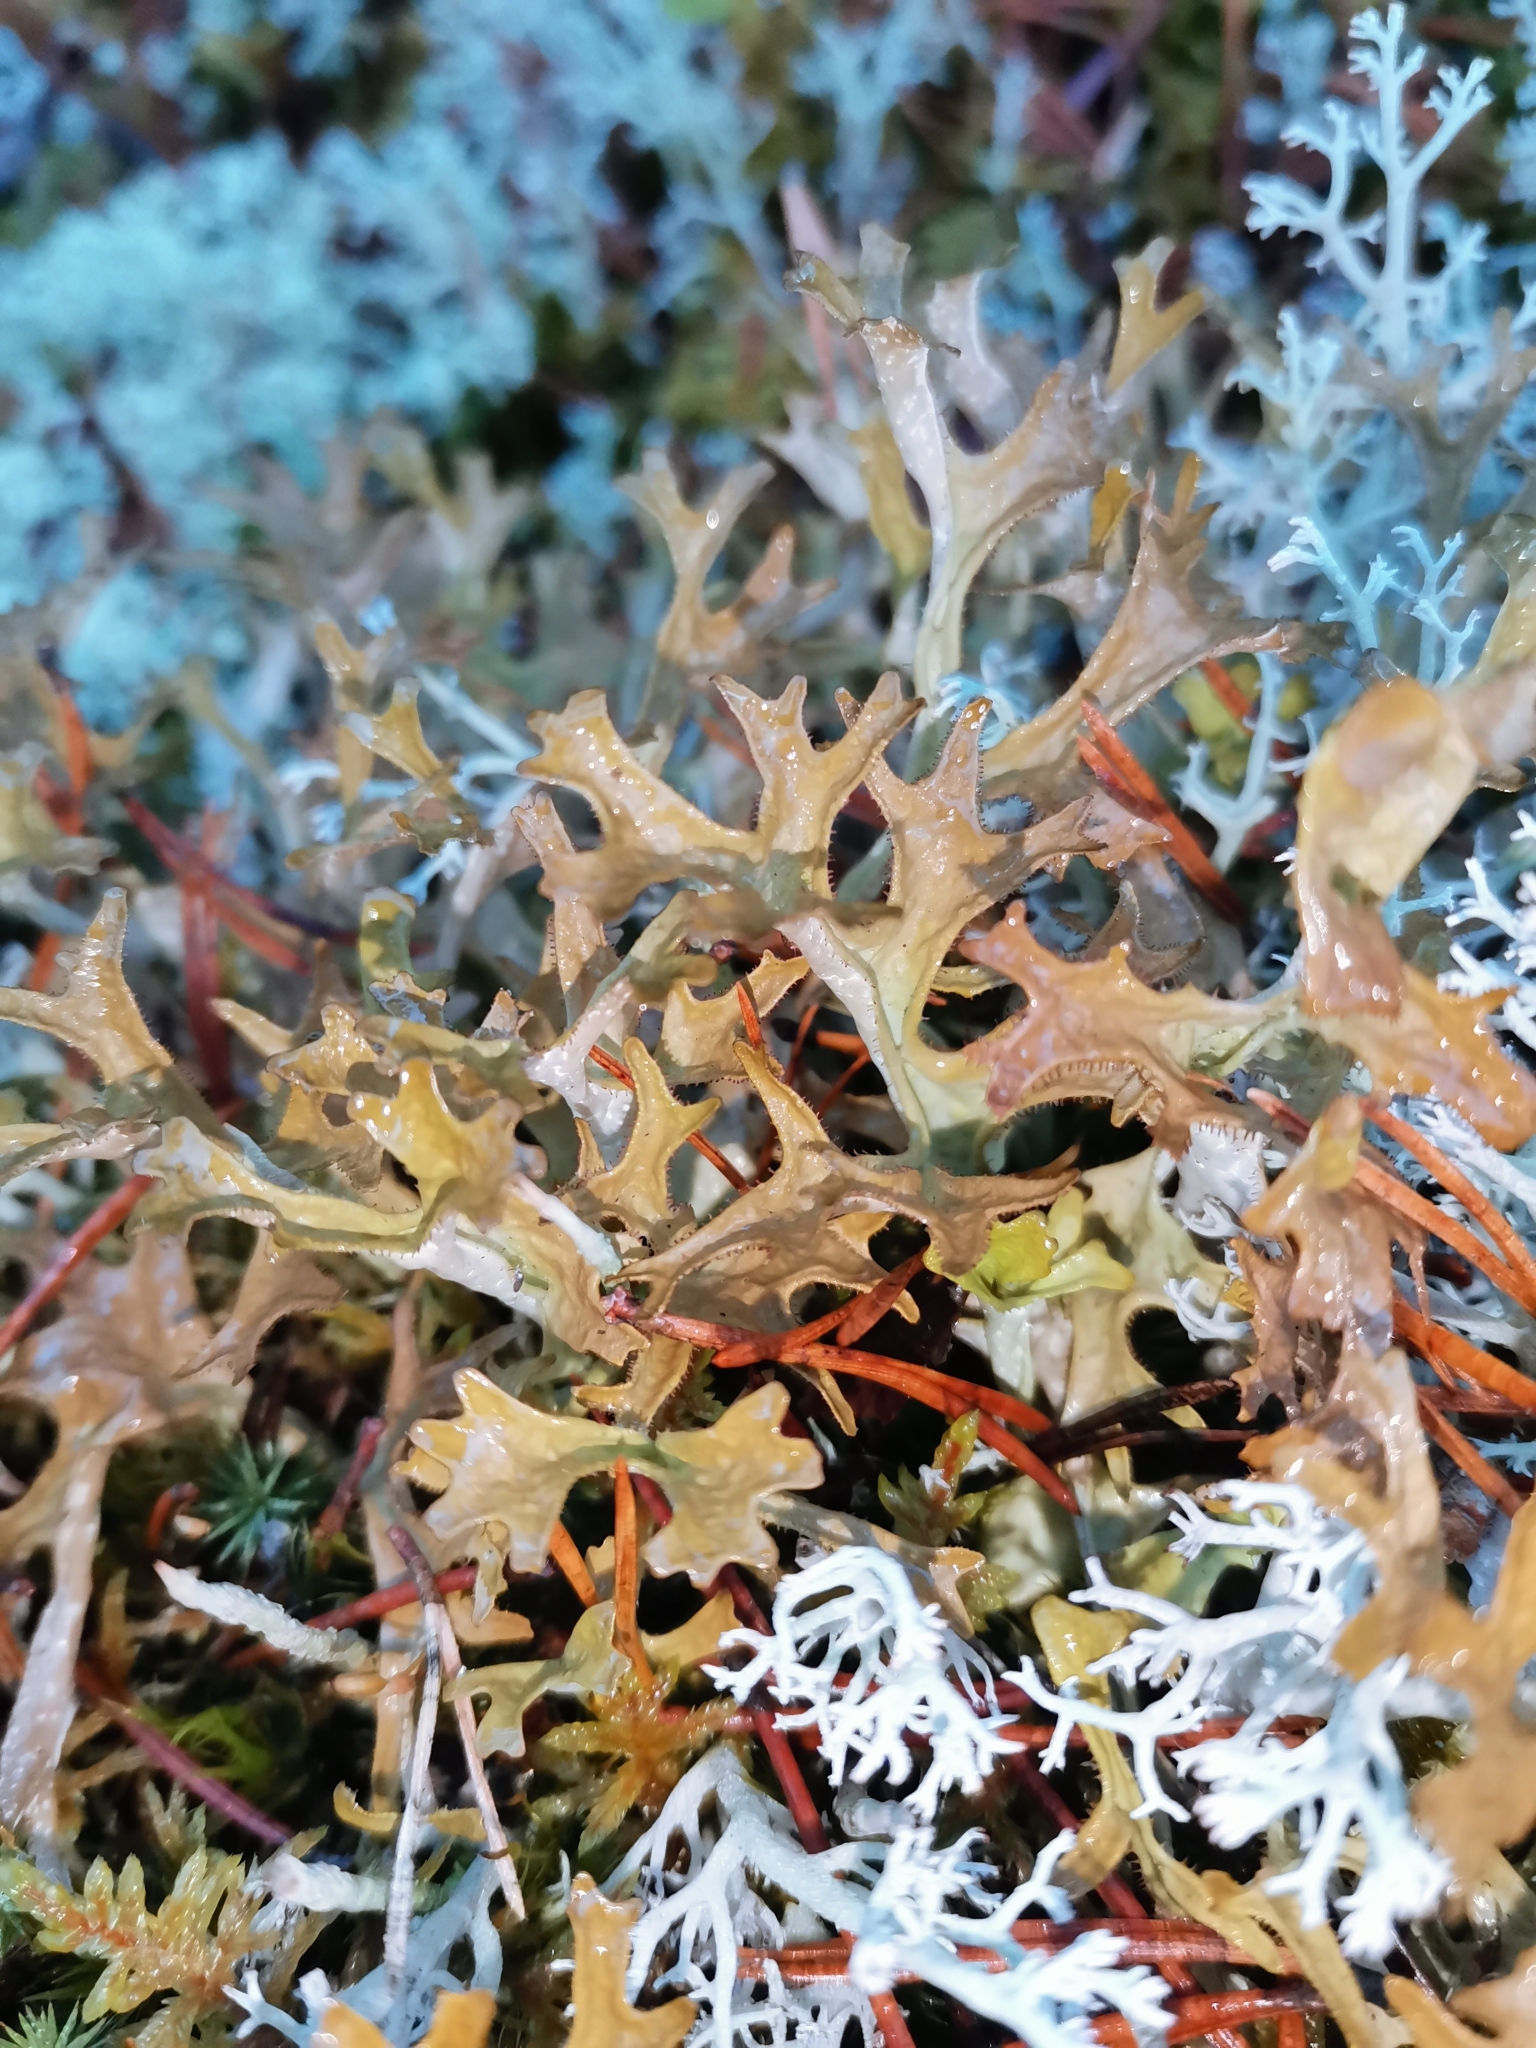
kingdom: Fungi
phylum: Ascomycota
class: Lecanoromycetes
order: Lecanorales
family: Parmeliaceae
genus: Cetraria
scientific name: Cetraria islandica
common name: Iceland lichen
